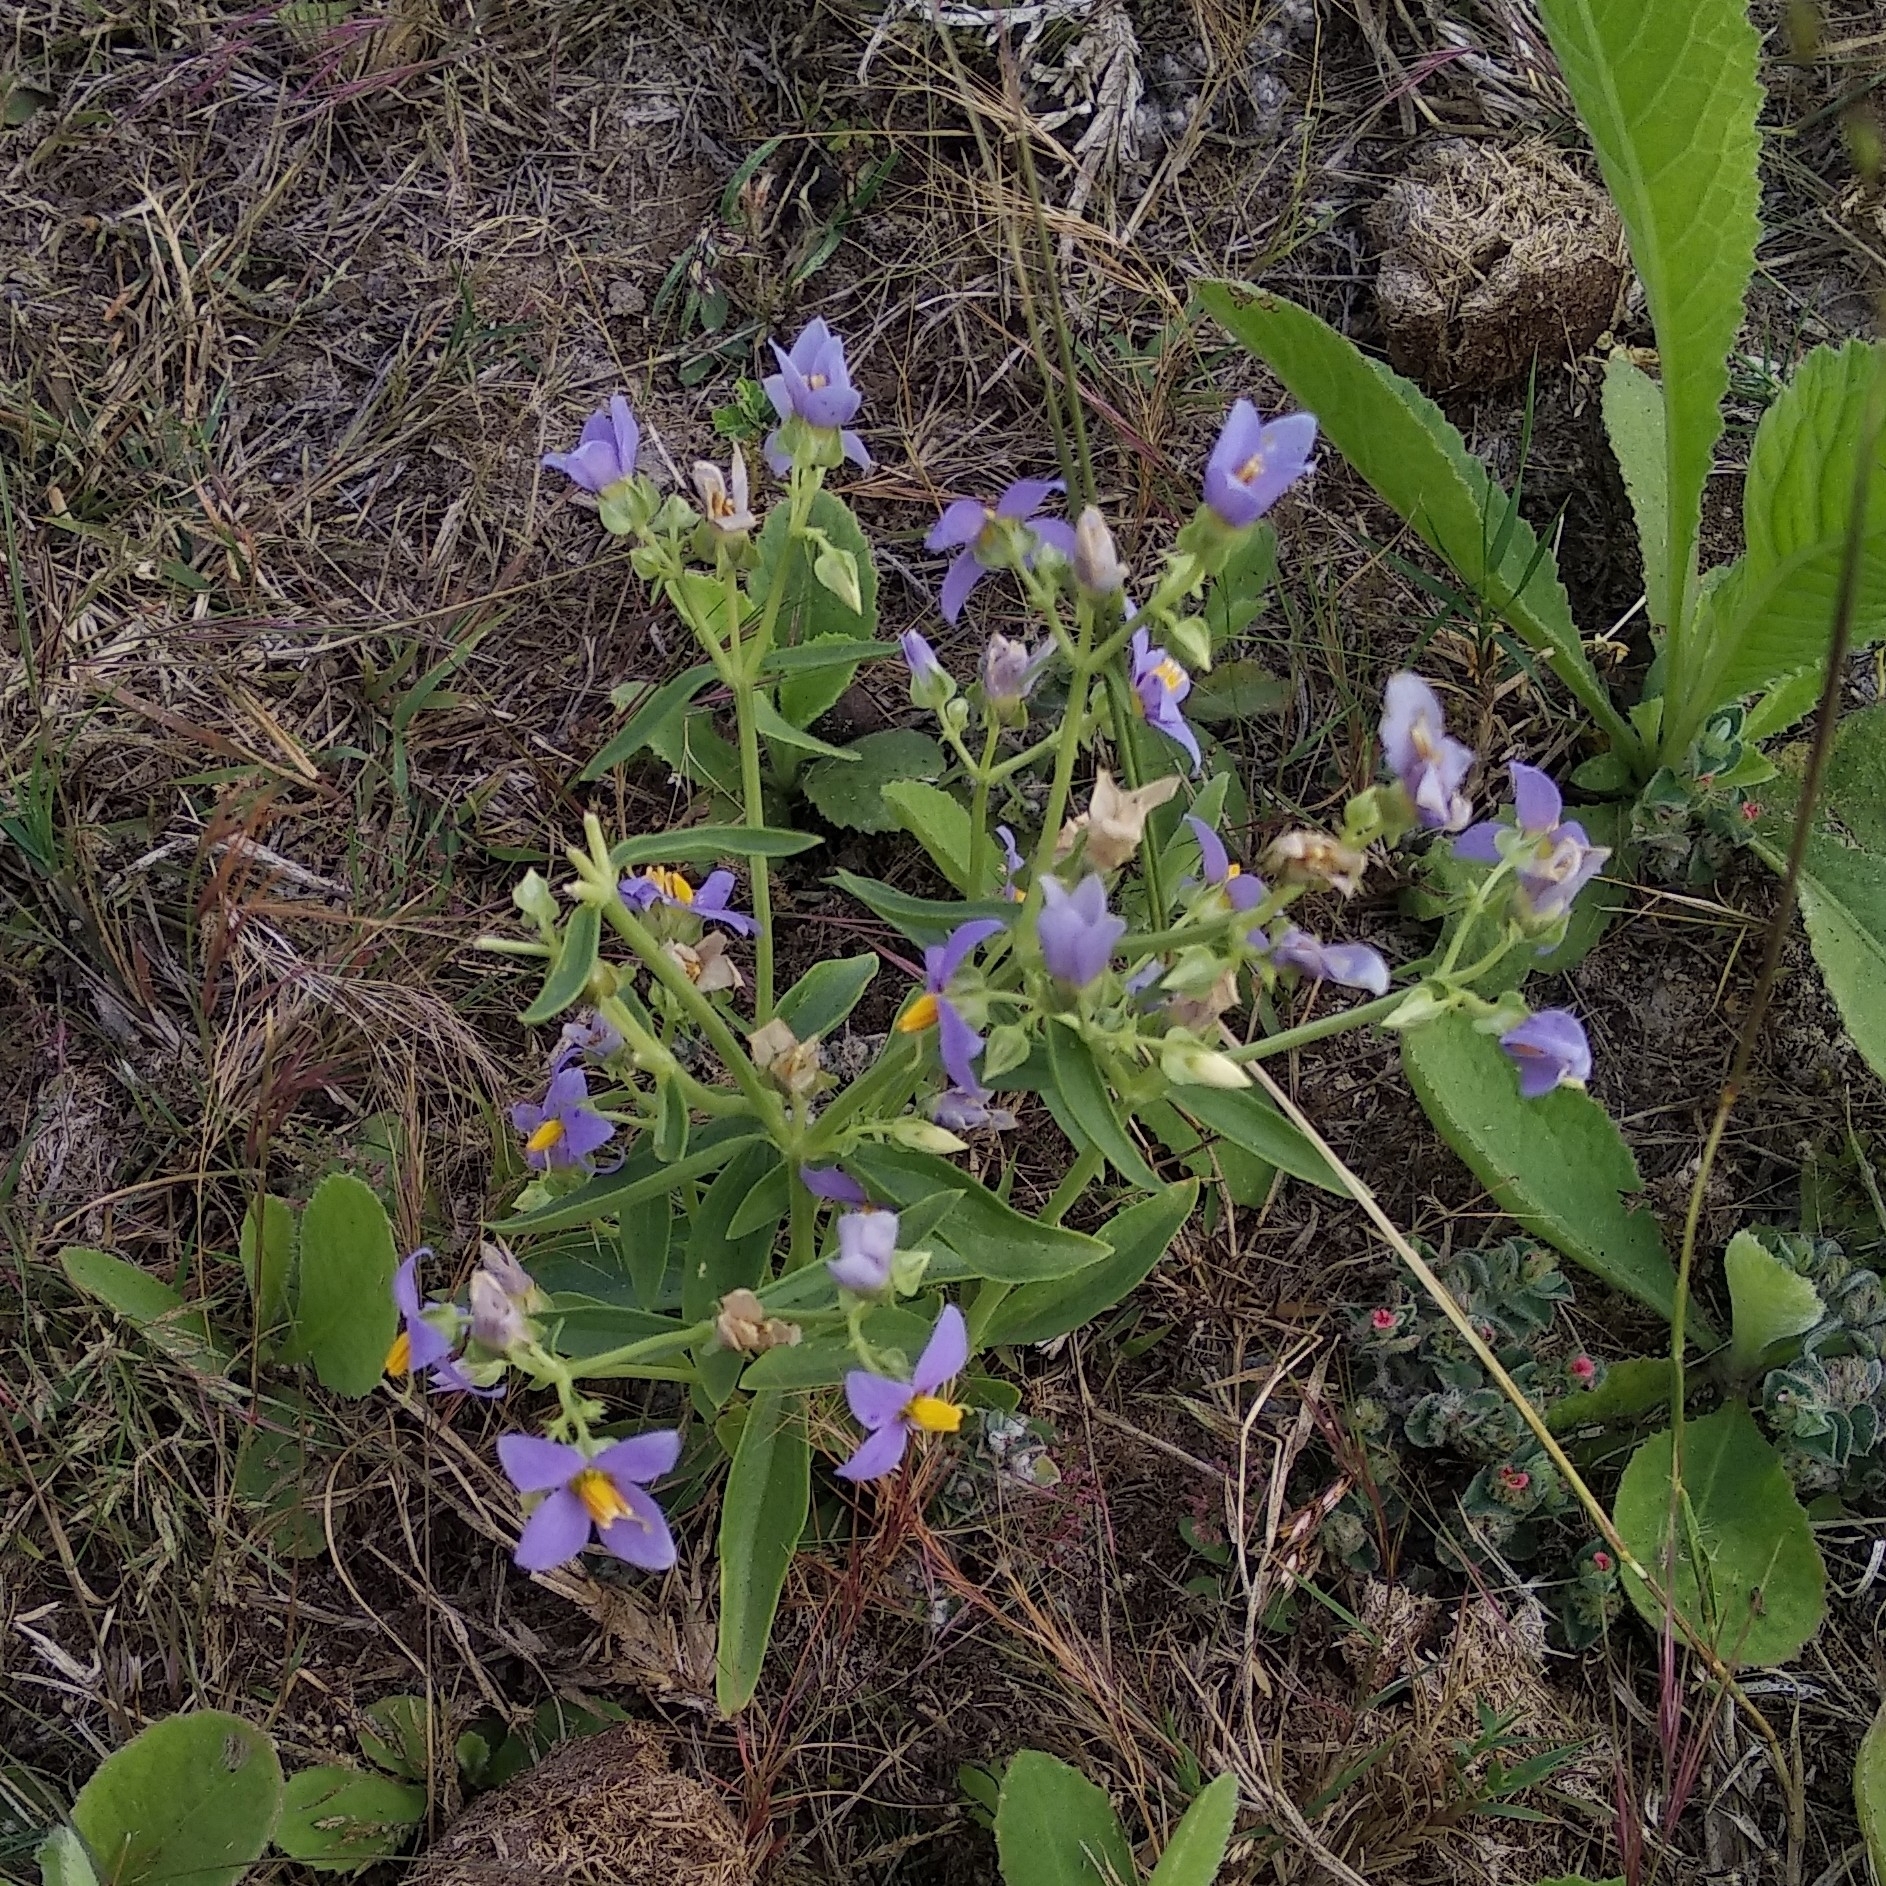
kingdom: Plantae
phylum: Tracheophyta
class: Magnoliopsida
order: Gentianales
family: Gentianaceae
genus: Exacum
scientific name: Exacum pedunculatum
